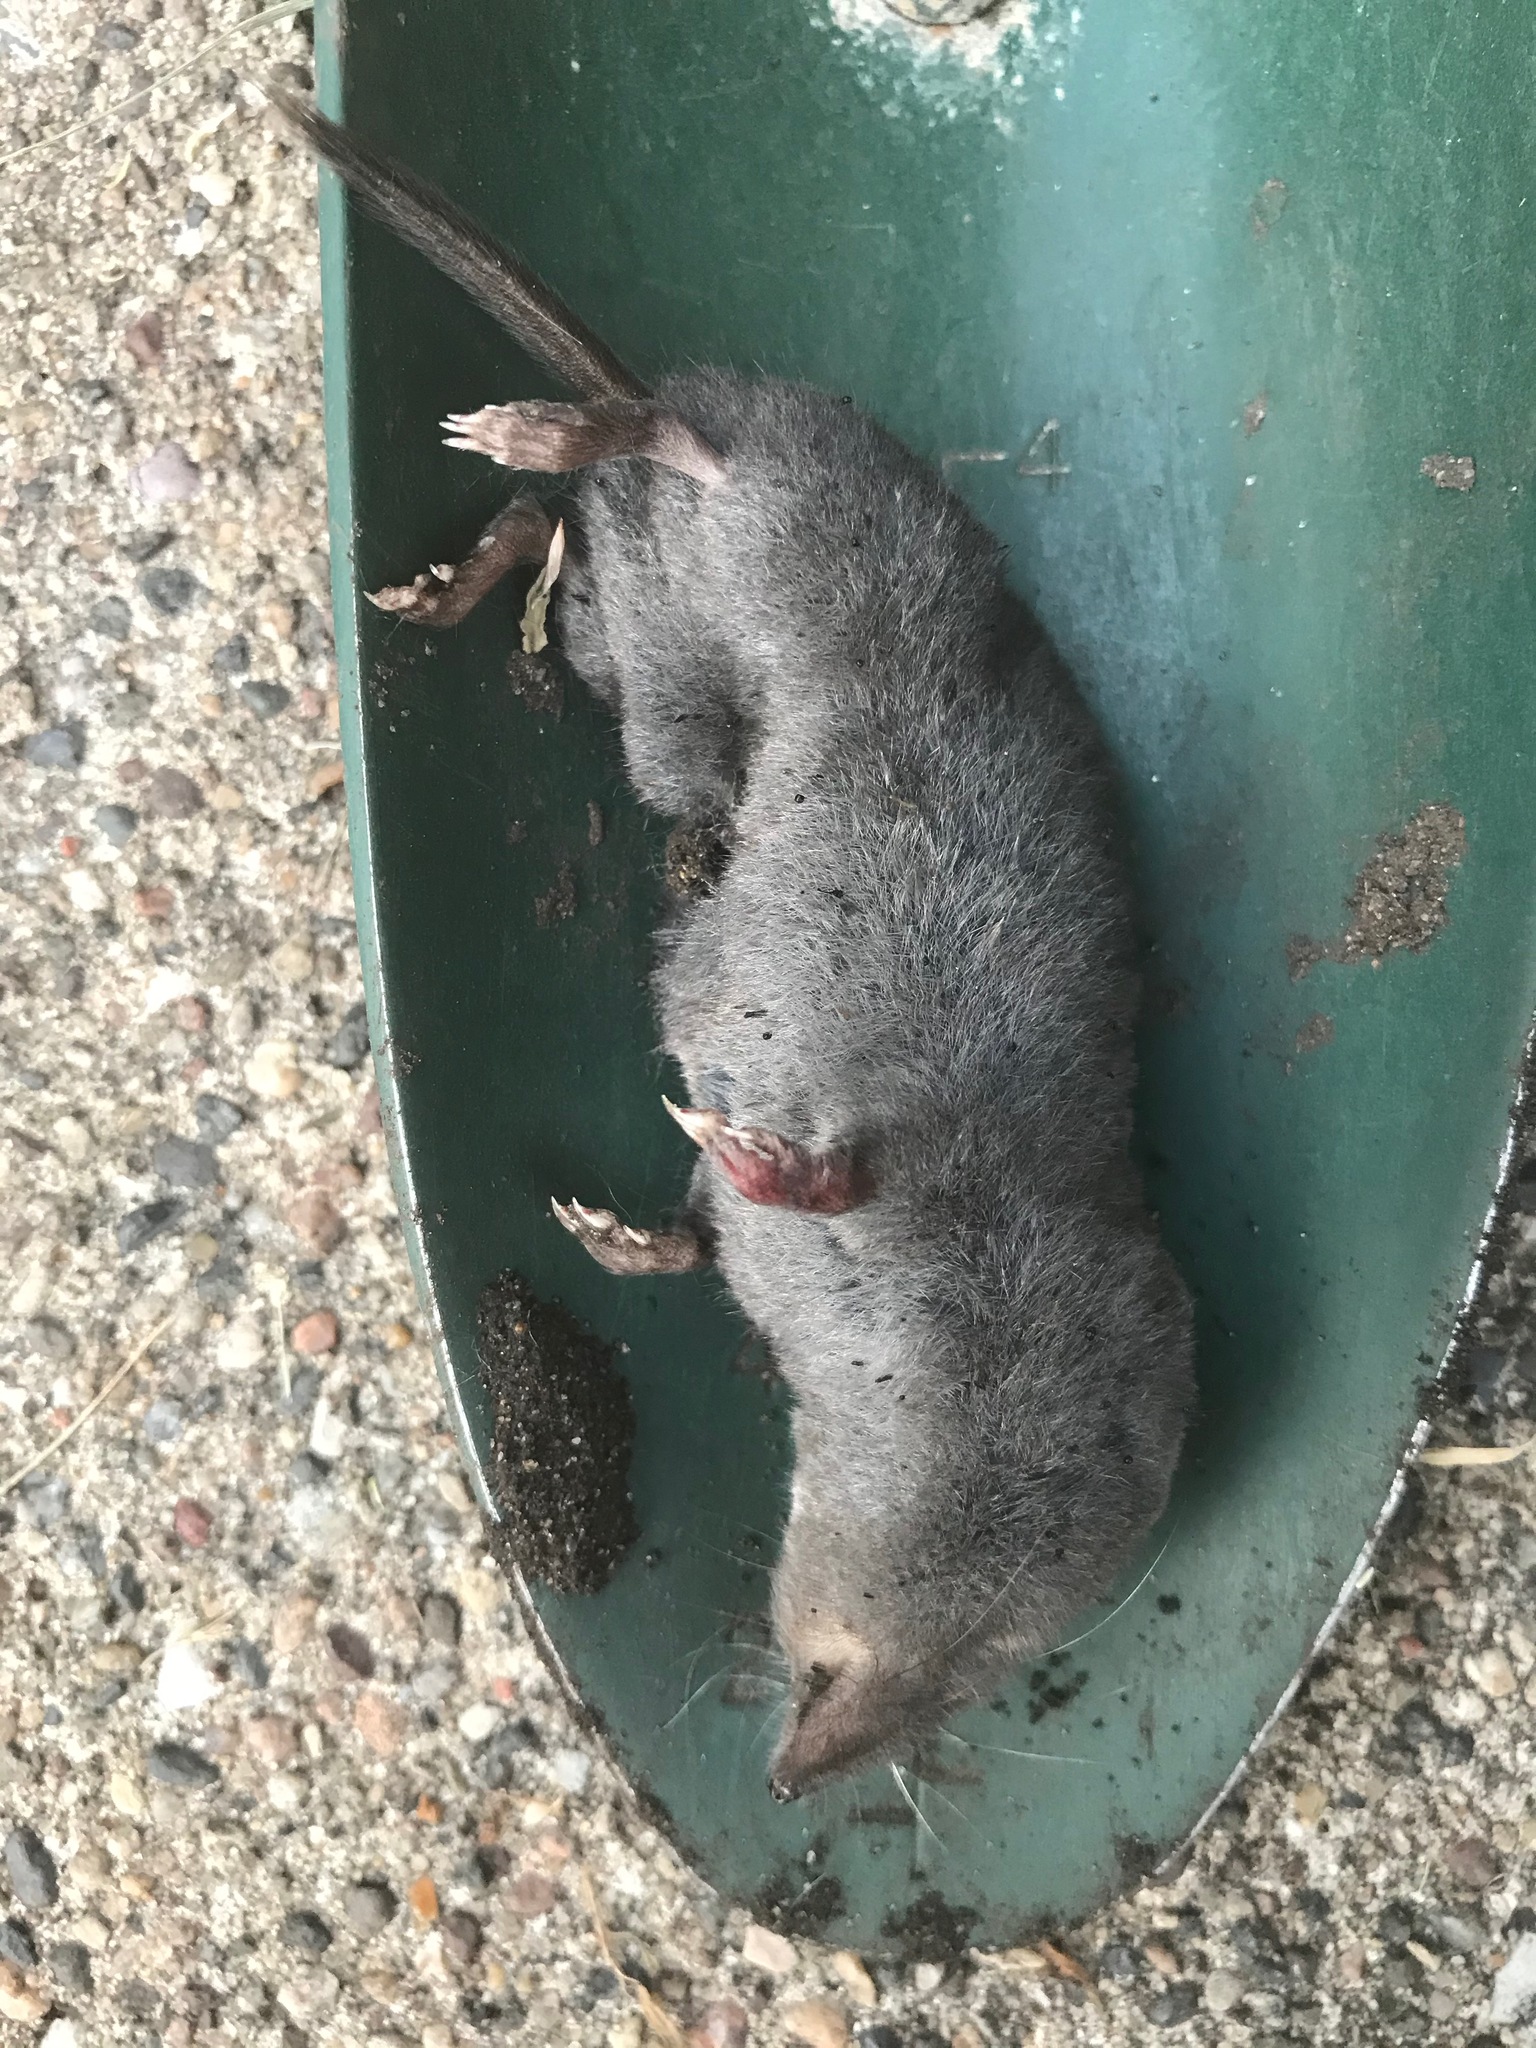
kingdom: Animalia
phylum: Chordata
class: Mammalia
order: Soricomorpha
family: Soricidae
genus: Blarina
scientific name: Blarina brevicauda
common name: Northern short-tailed shrew
